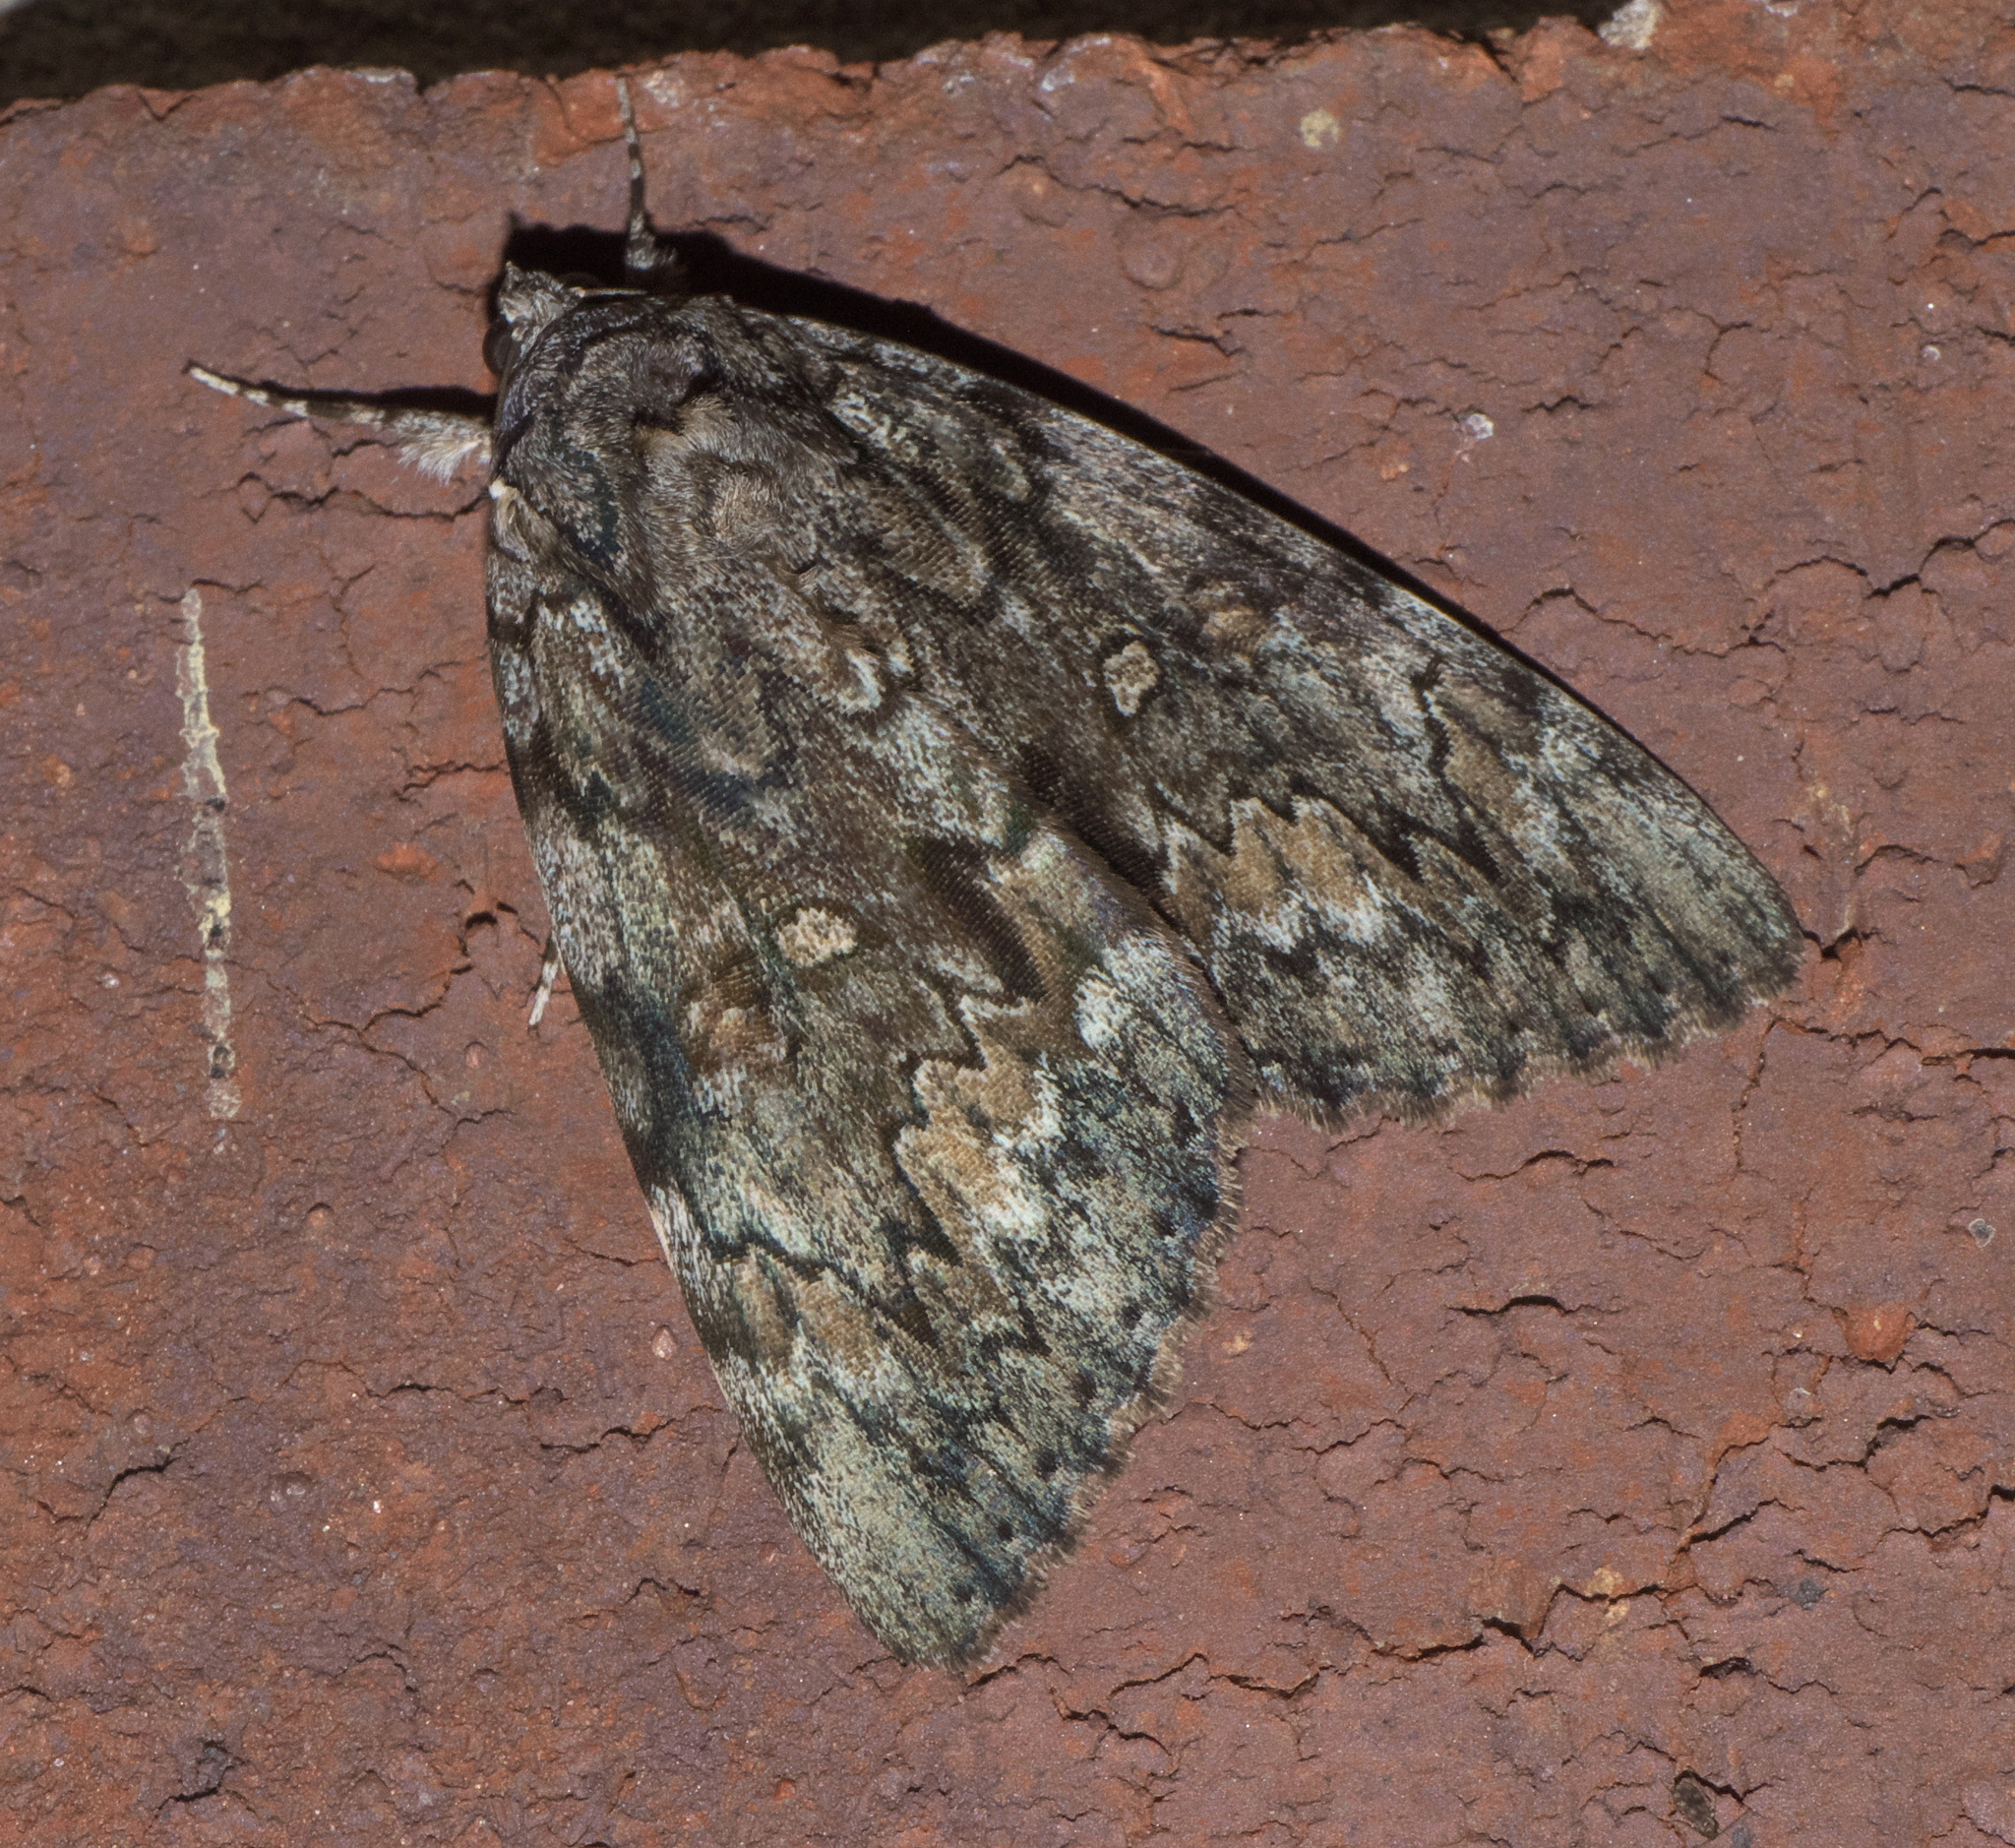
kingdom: Animalia
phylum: Arthropoda
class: Insecta
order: Lepidoptera
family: Erebidae
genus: Catocala
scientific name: Catocala palaeogama
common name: Oldwife underwing
